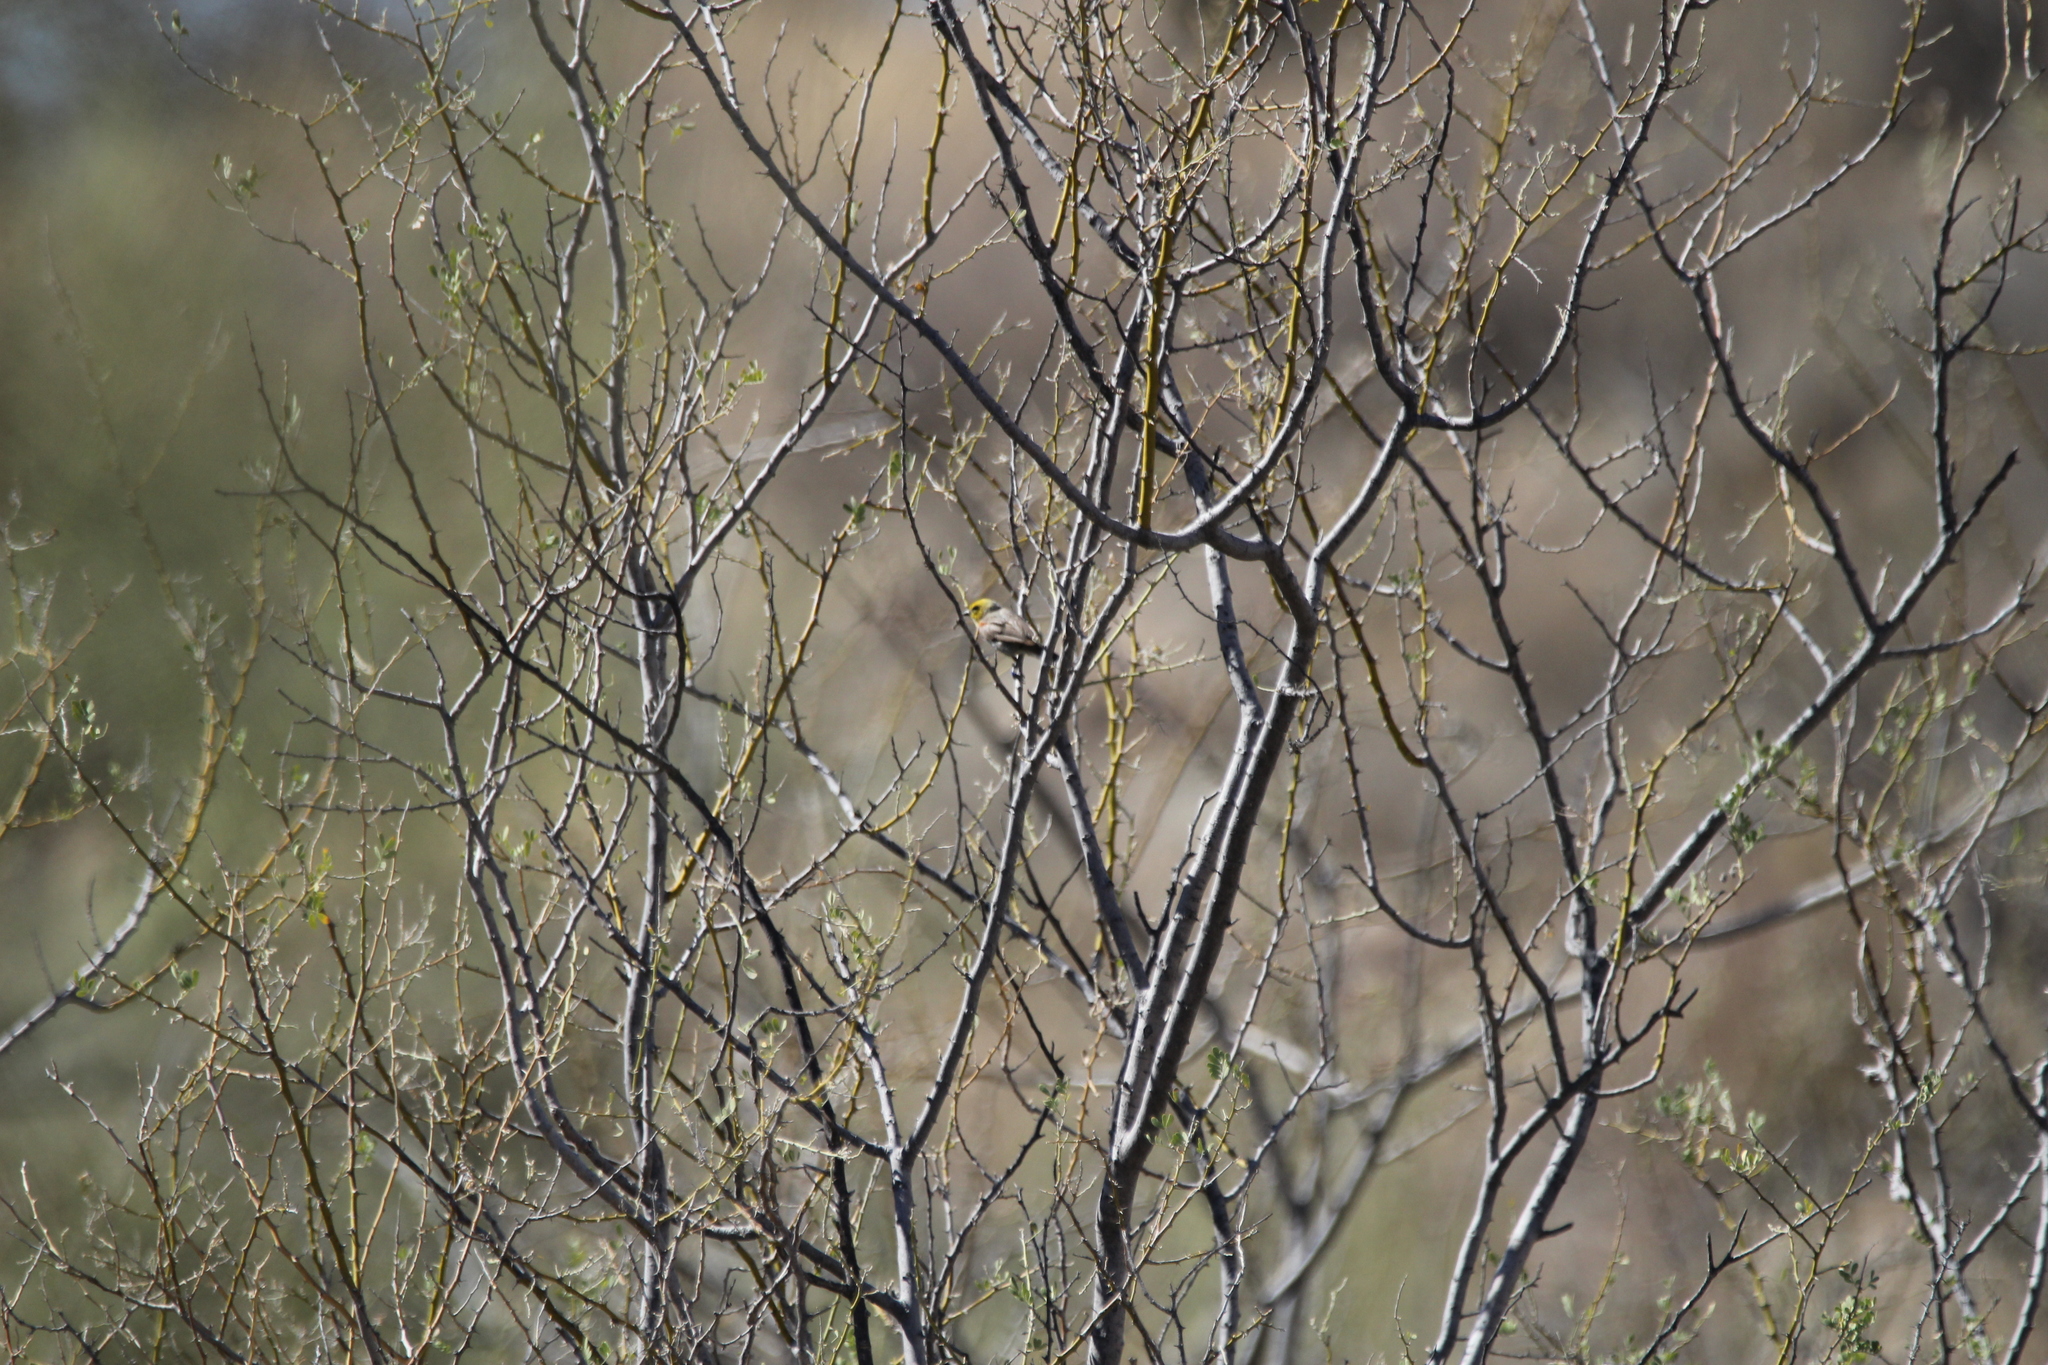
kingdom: Animalia
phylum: Chordata
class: Aves
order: Passeriformes
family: Remizidae
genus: Auriparus
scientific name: Auriparus flaviceps
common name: Verdin
